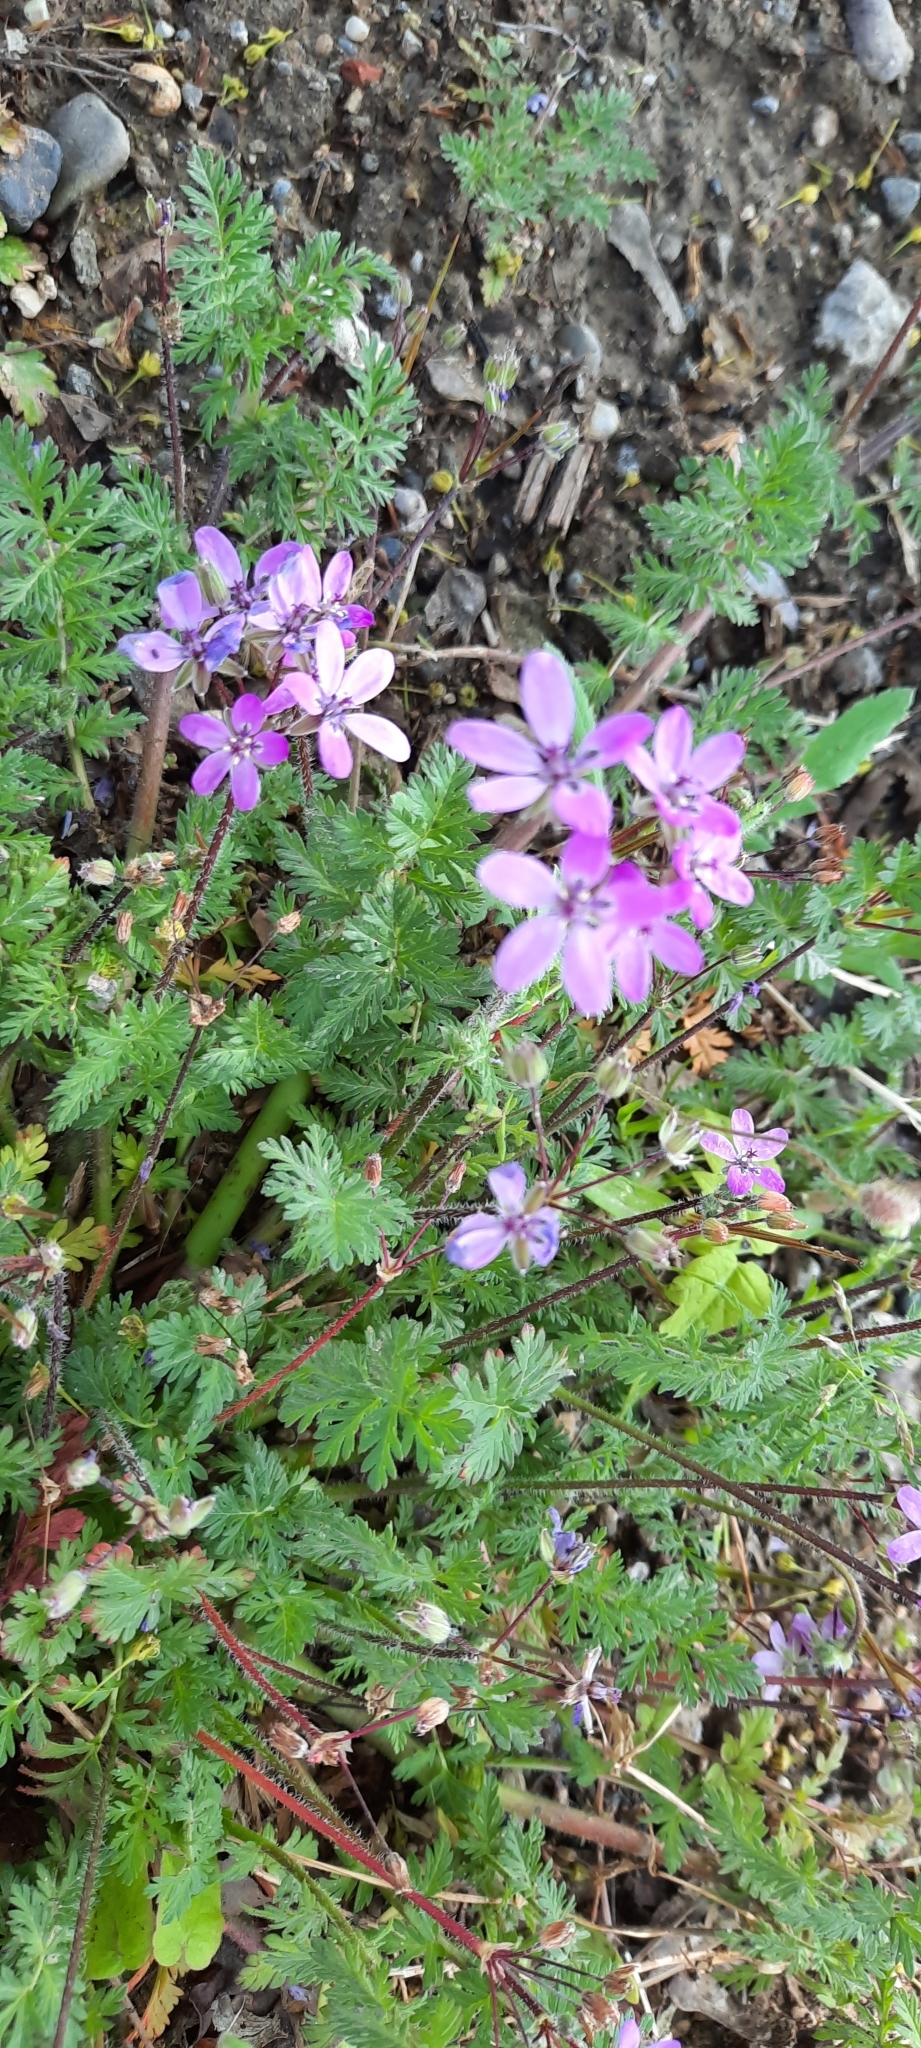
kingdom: Plantae
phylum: Tracheophyta
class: Magnoliopsida
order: Geraniales
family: Geraniaceae
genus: Erodium
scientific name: Erodium cicutarium
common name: Common stork's-bill
